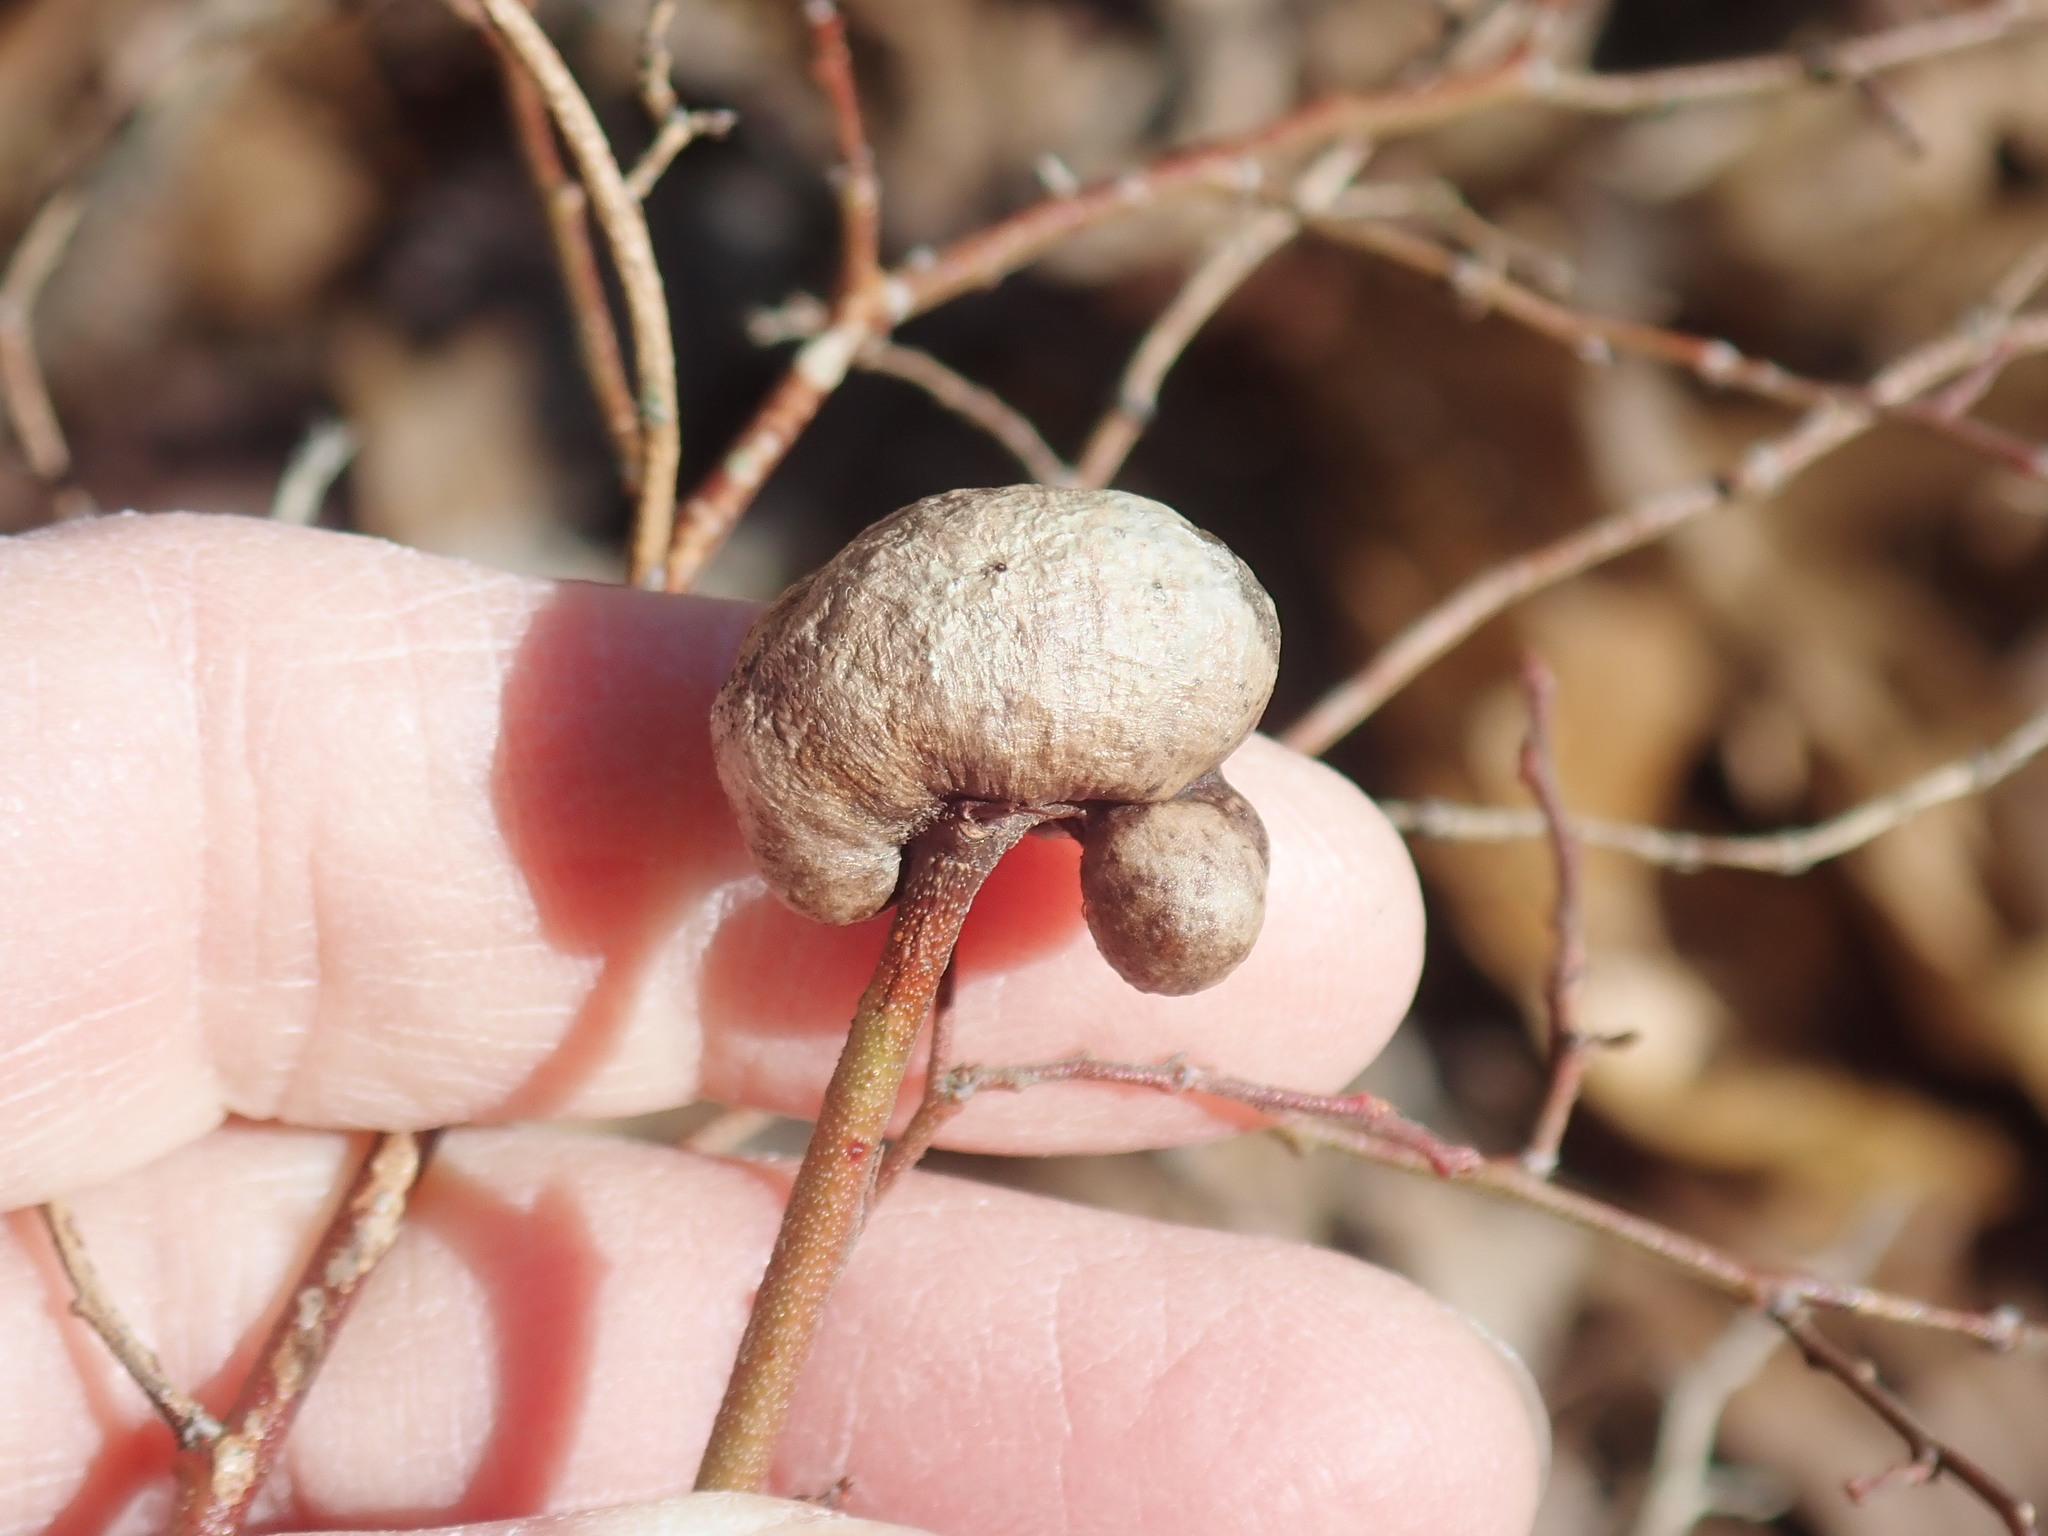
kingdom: Animalia
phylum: Arthropoda
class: Insecta
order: Hymenoptera
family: Pteromalidae
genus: Hemadas
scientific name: Hemadas nubilipennis
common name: Blueberry stem gall wasp
